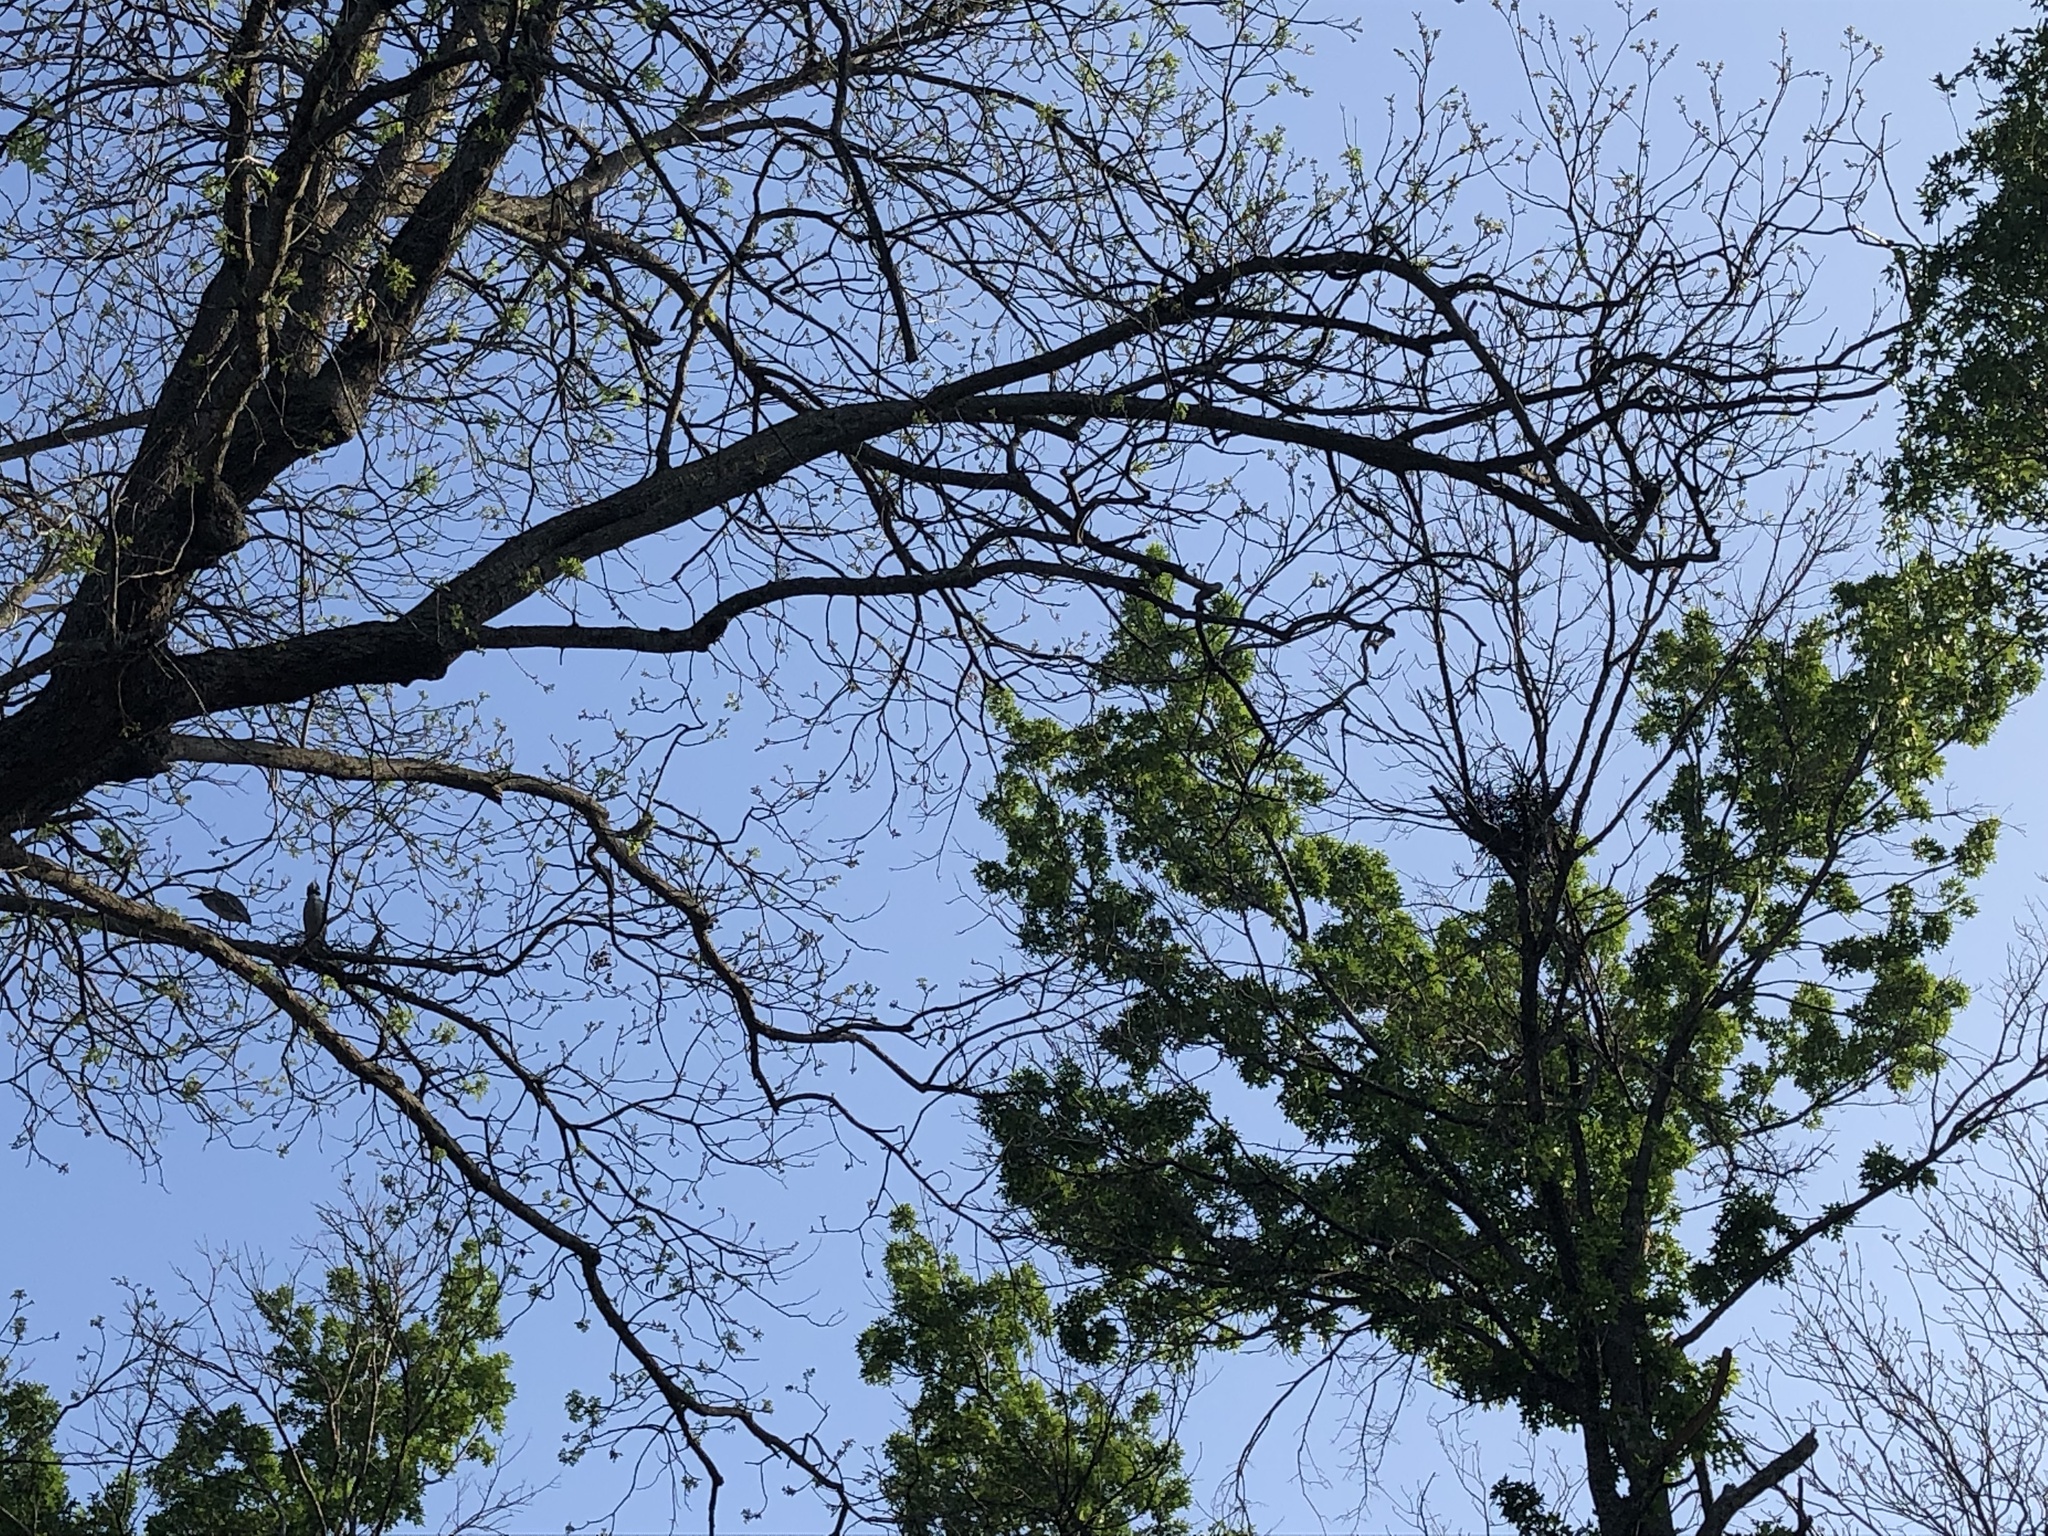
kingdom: Animalia
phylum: Chordata
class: Aves
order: Pelecaniformes
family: Ardeidae
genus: Nyctanassa
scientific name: Nyctanassa violacea
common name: Yellow-crowned night heron
